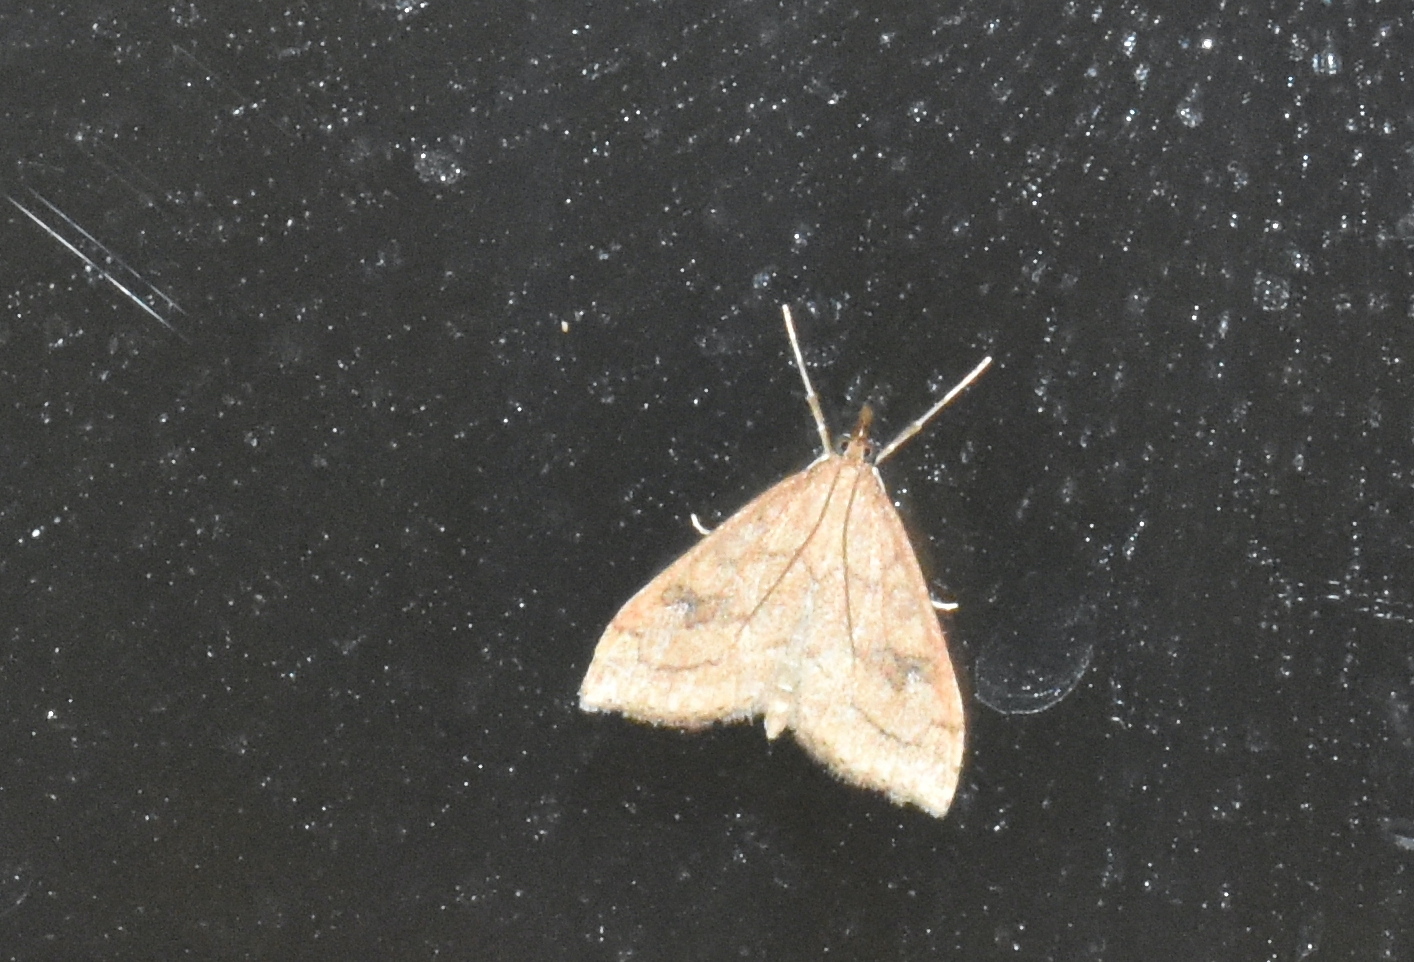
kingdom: Animalia
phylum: Arthropoda
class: Insecta
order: Lepidoptera
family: Crambidae
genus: Udea
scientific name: Udea profundalis
